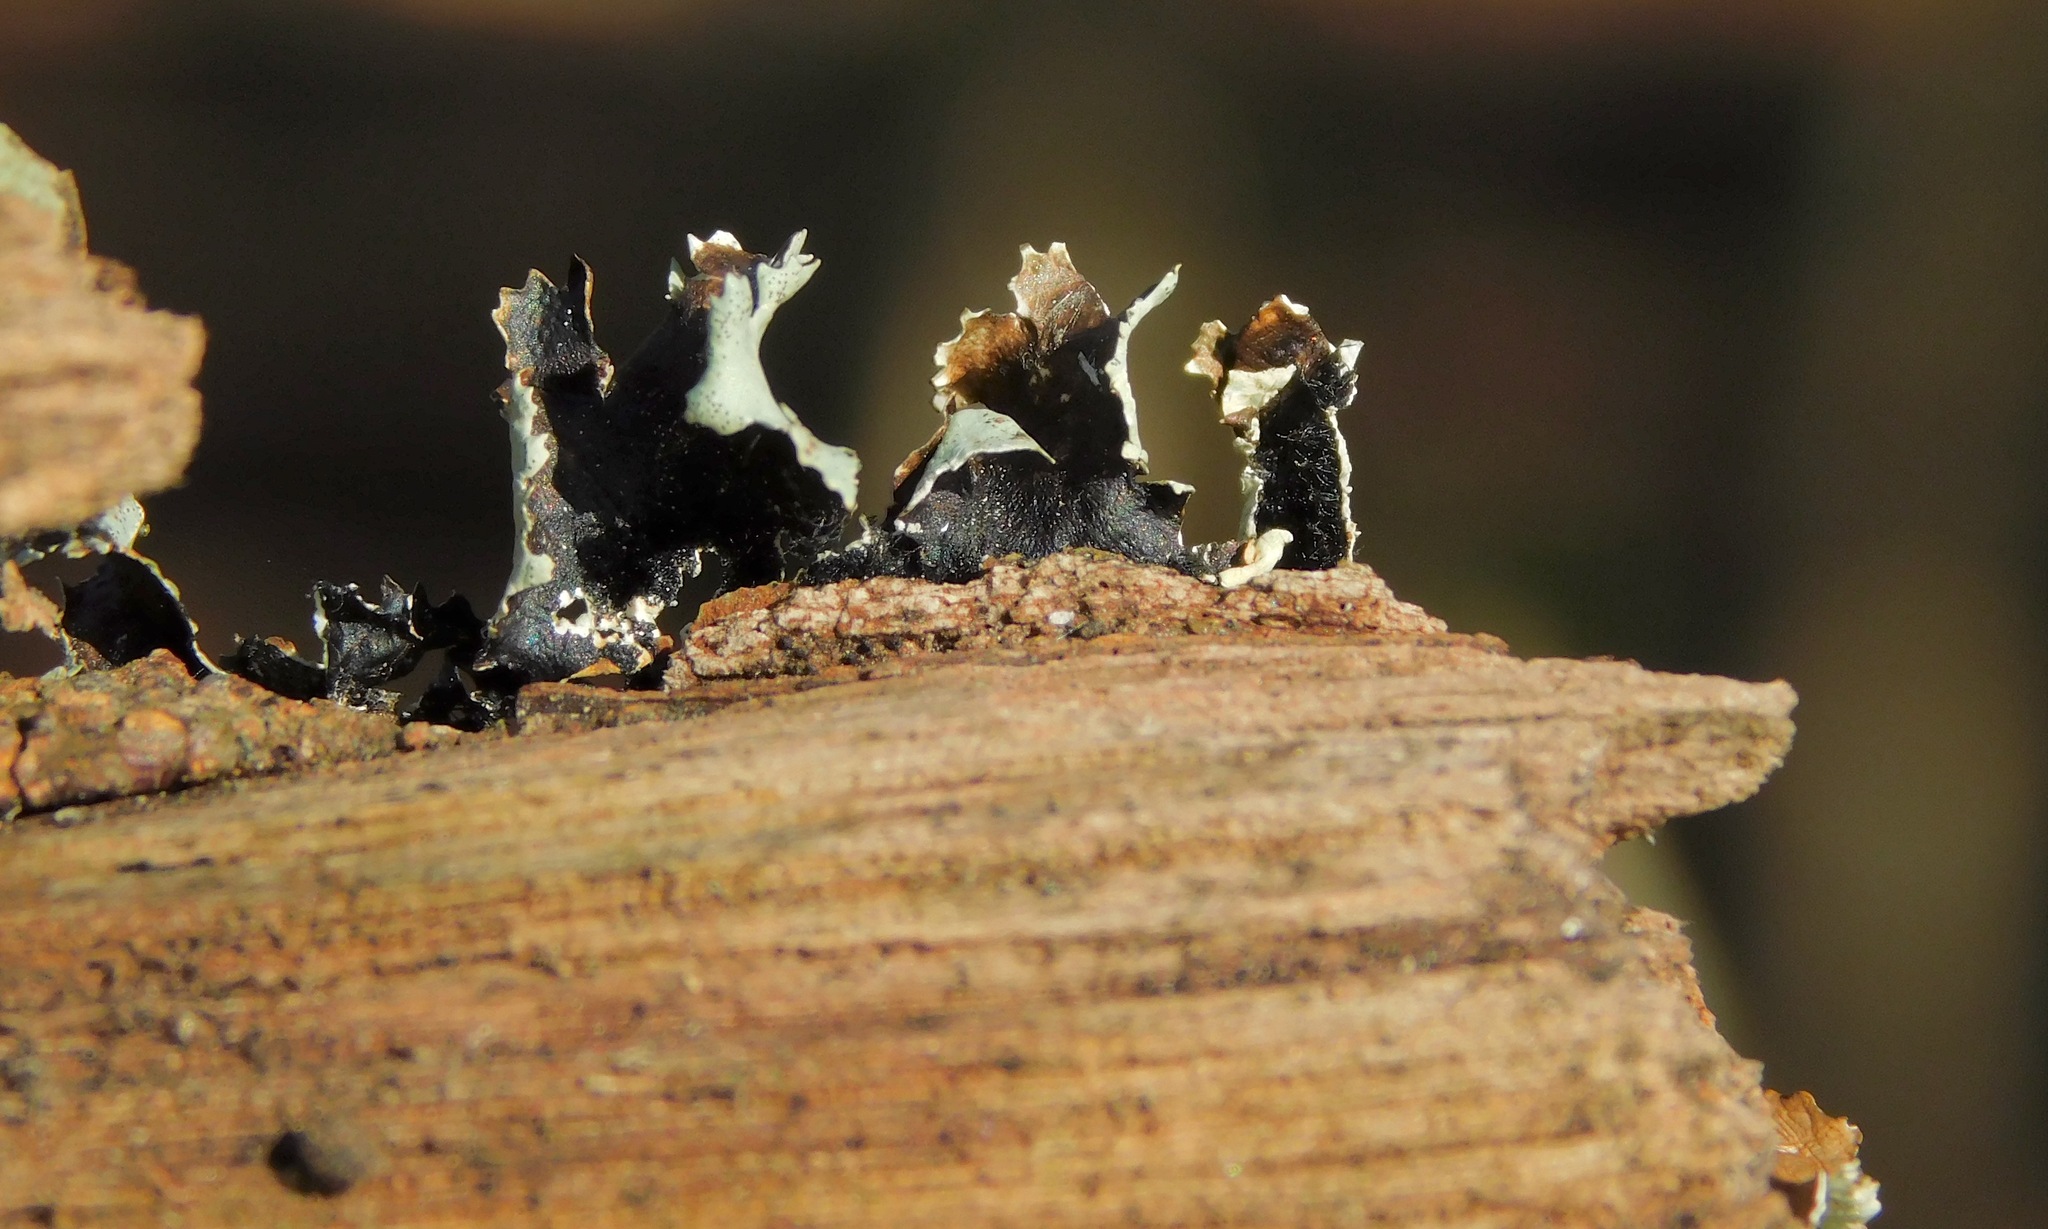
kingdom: Fungi
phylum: Ascomycota
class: Lecanoromycetes
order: Lecanorales
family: Parmeliaceae
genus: Parmotrema
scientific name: Parmotrema submarginale
